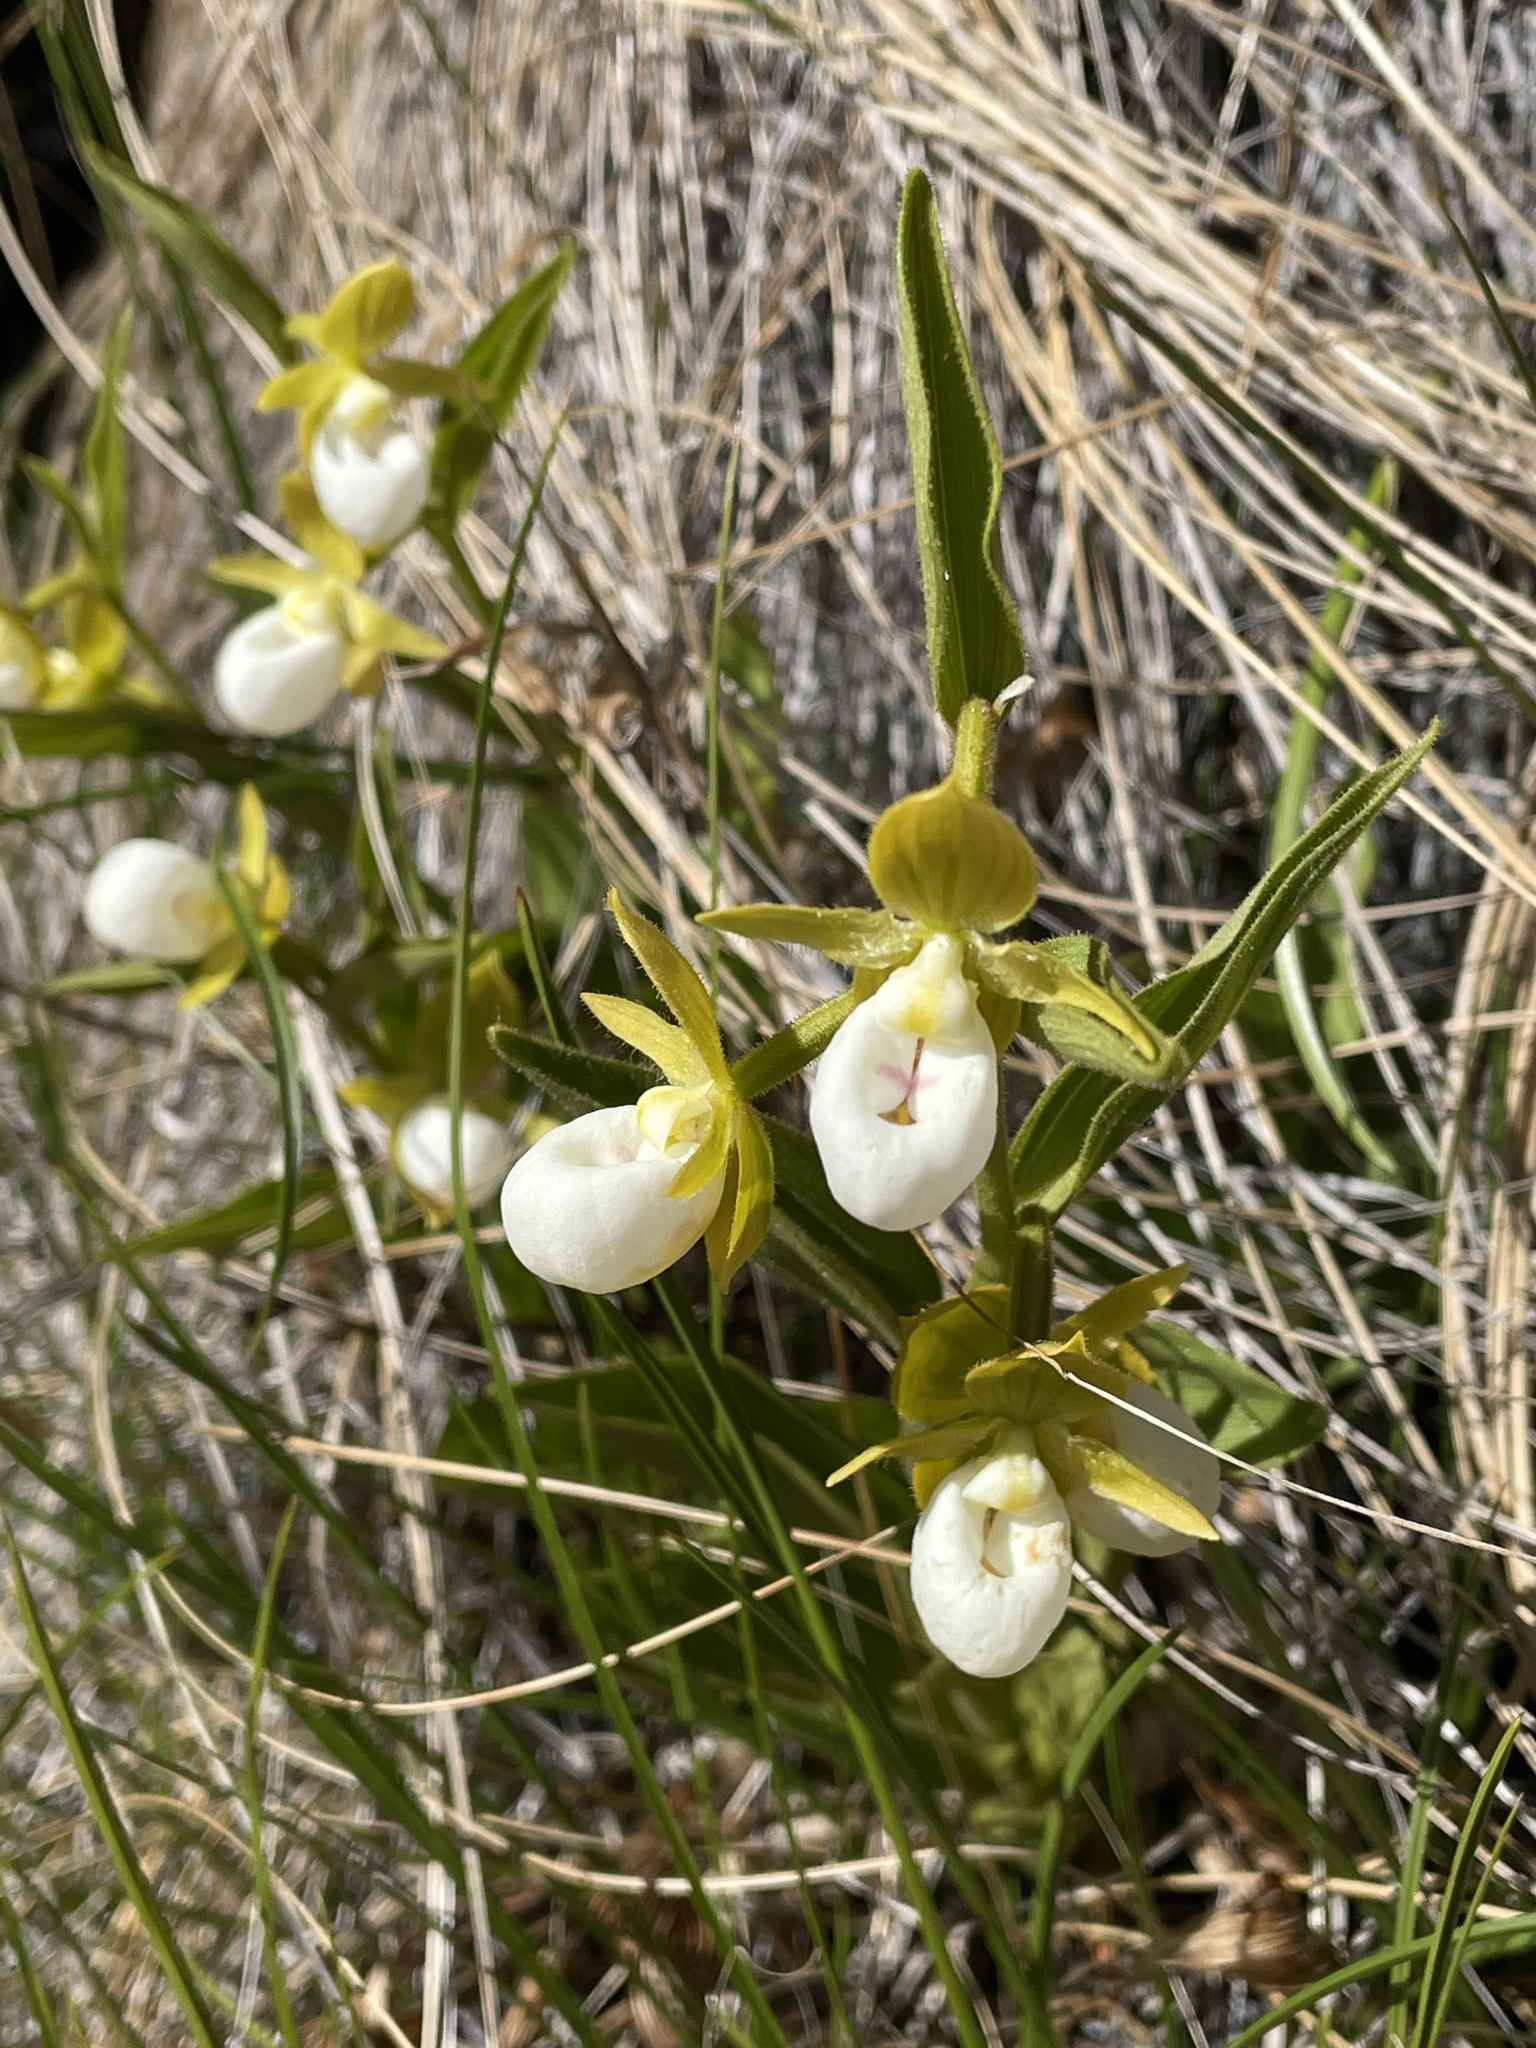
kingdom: Plantae
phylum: Tracheophyta
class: Liliopsida
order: Asparagales
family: Orchidaceae
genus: Cypripedium
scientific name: Cypripedium californicum
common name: California lady's slipper
